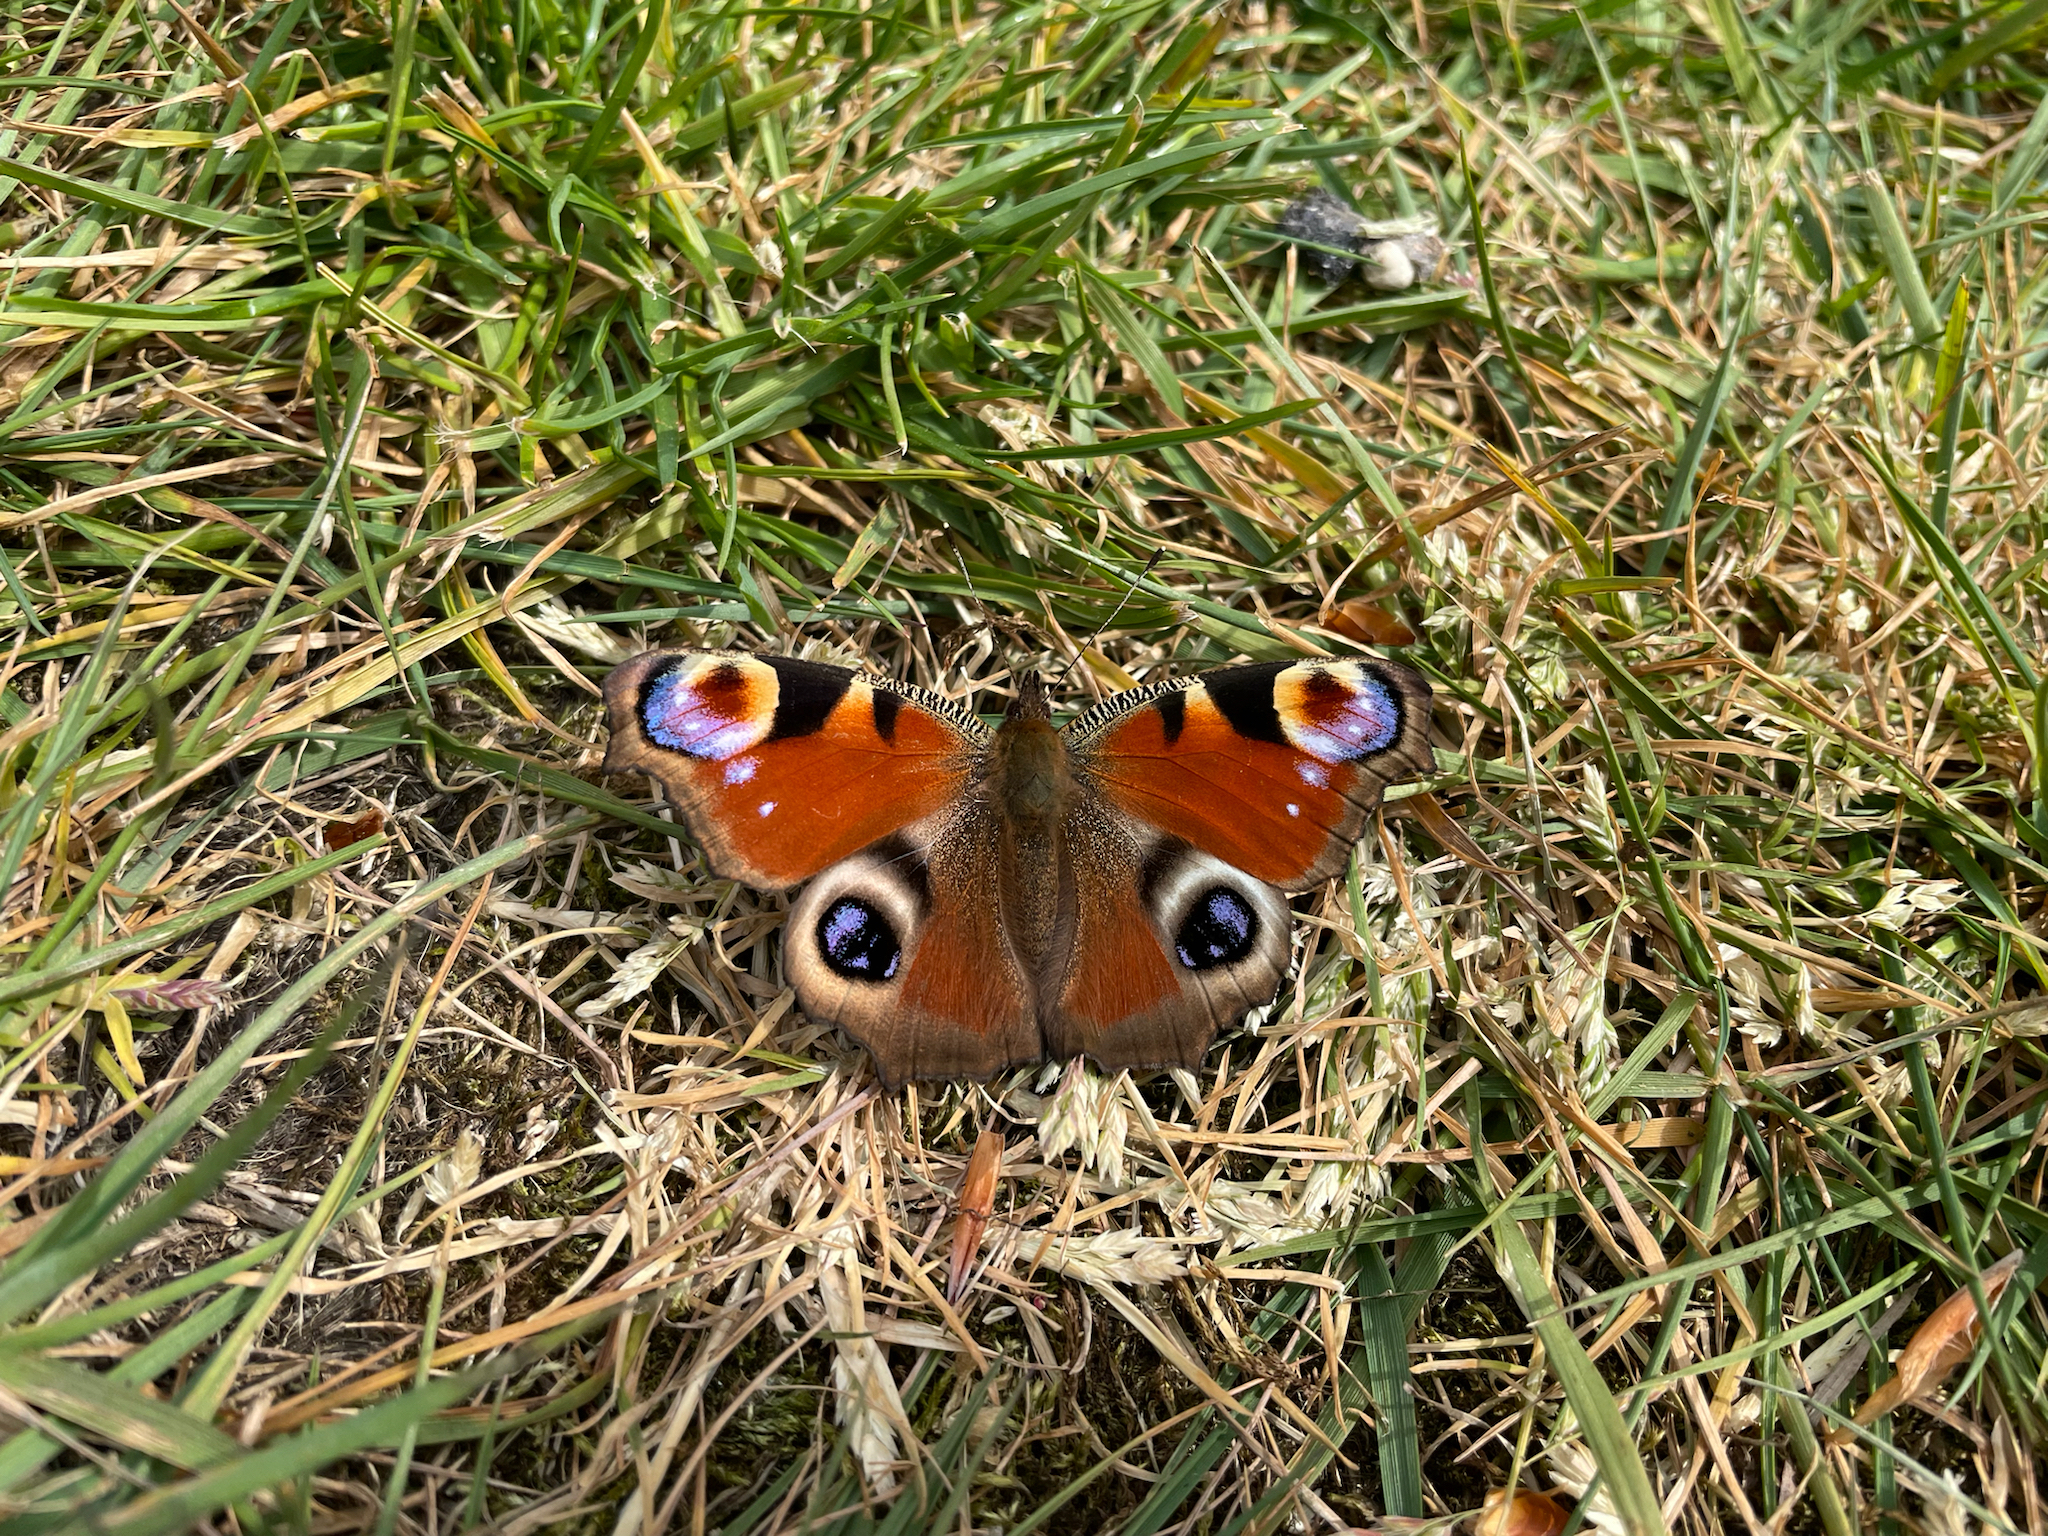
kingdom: Animalia
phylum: Arthropoda
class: Insecta
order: Lepidoptera
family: Nymphalidae
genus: Aglais
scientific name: Aglais io
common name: Peacock
